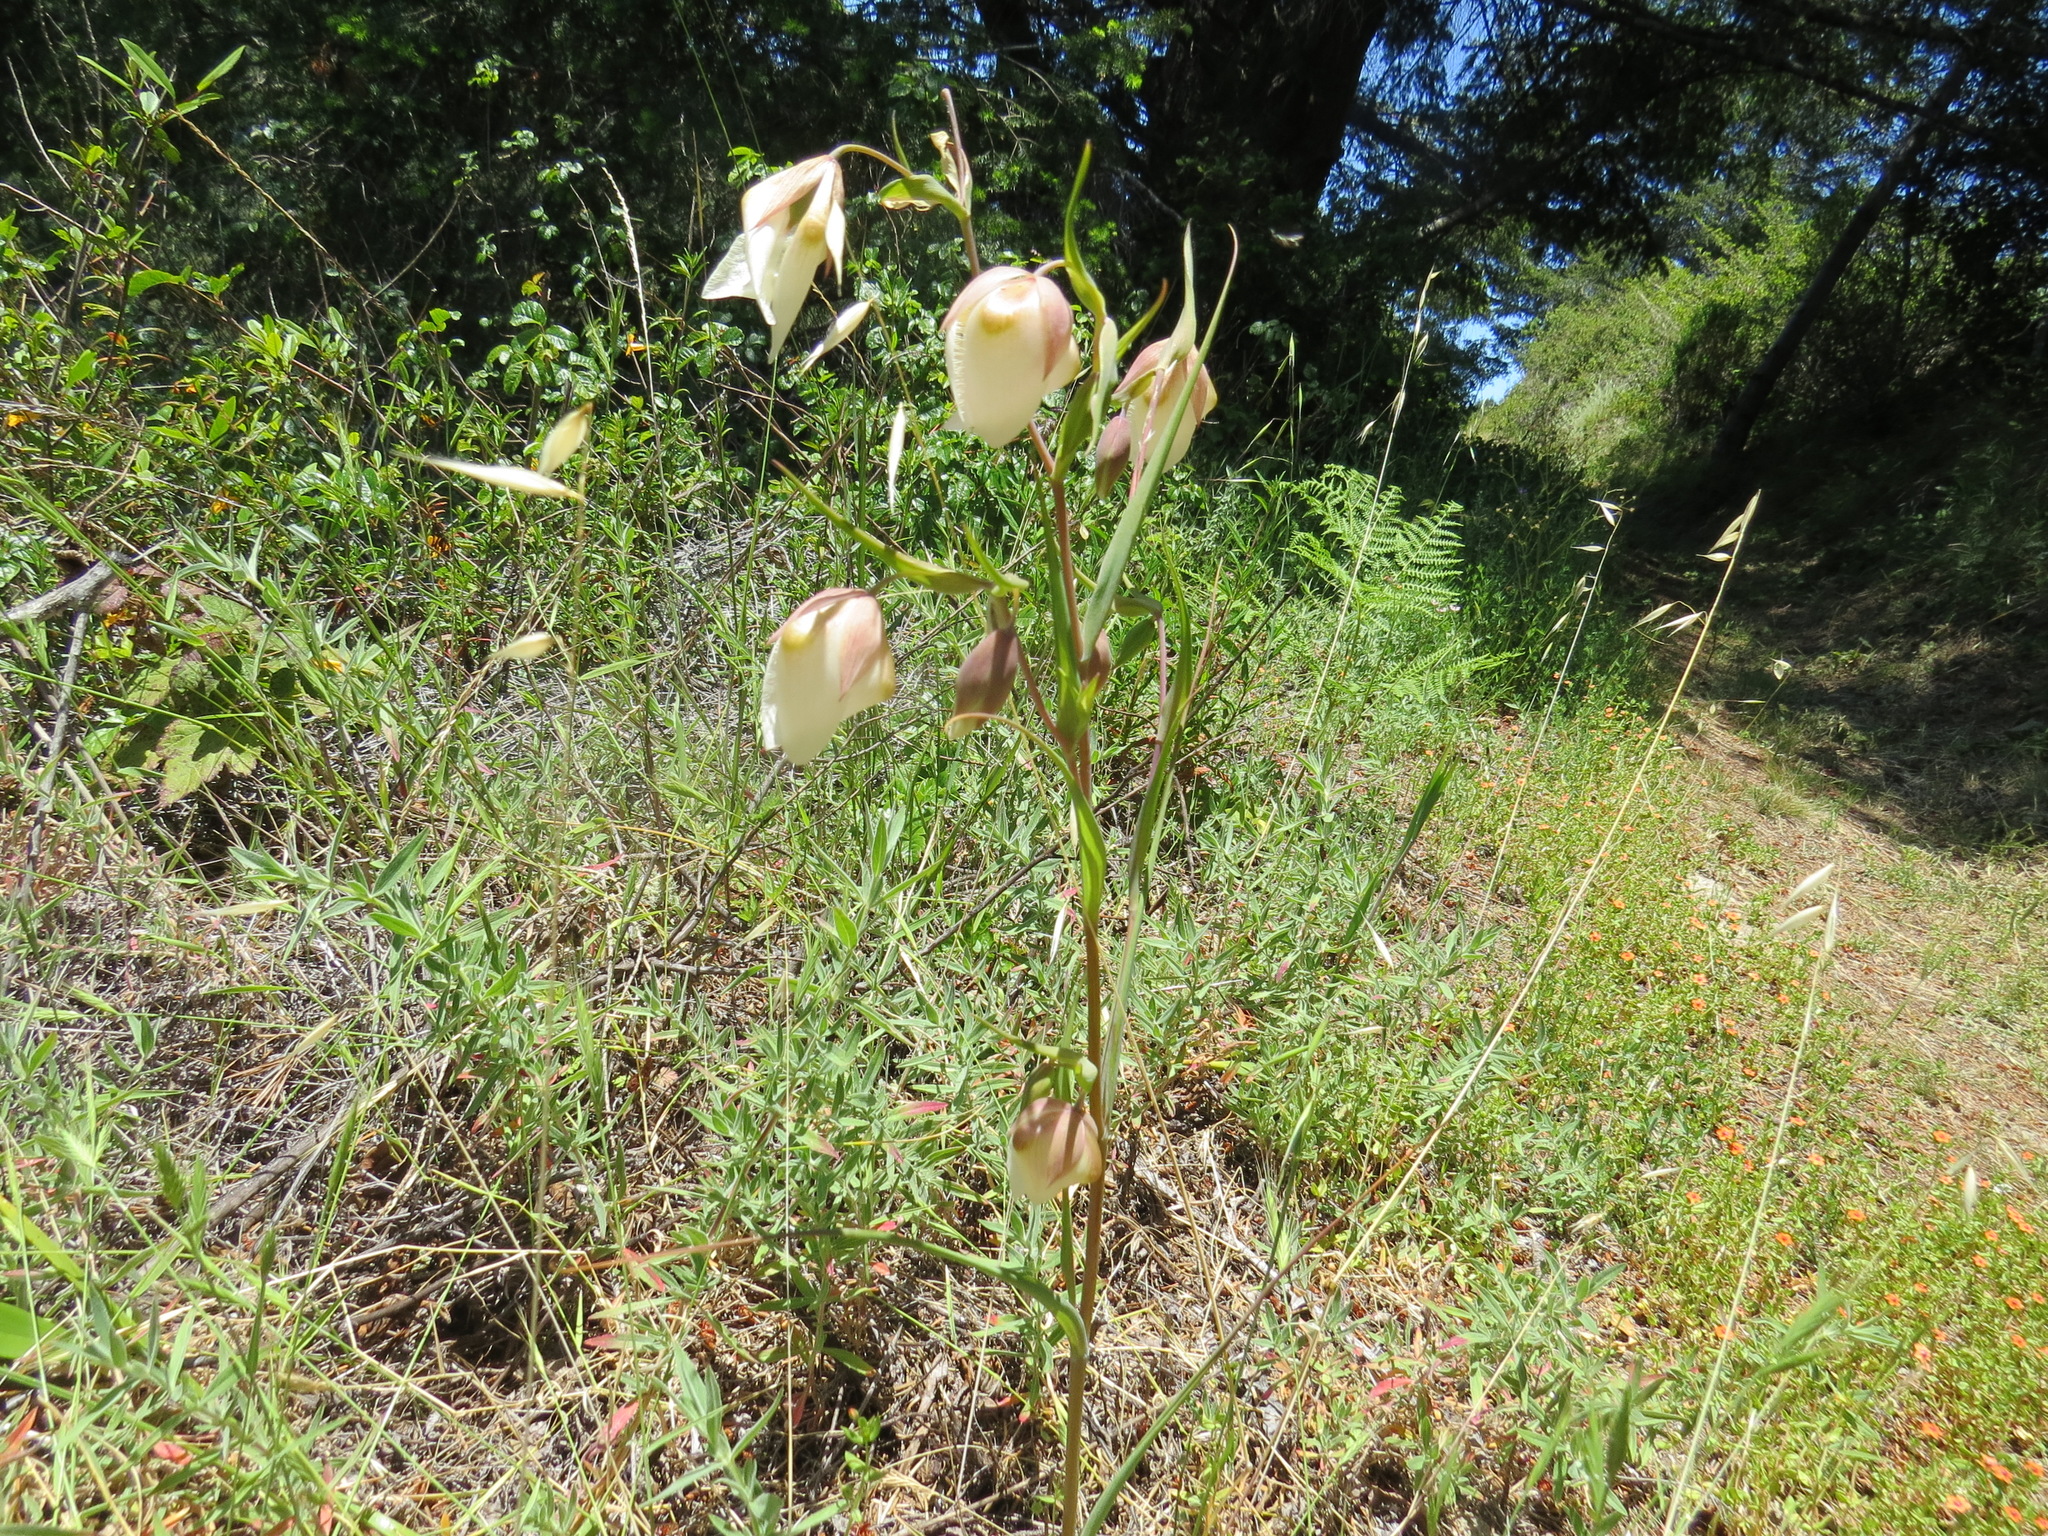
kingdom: Plantae
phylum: Tracheophyta
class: Liliopsida
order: Liliales
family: Liliaceae
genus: Calochortus
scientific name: Calochortus albus
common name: Fairy-lantern
